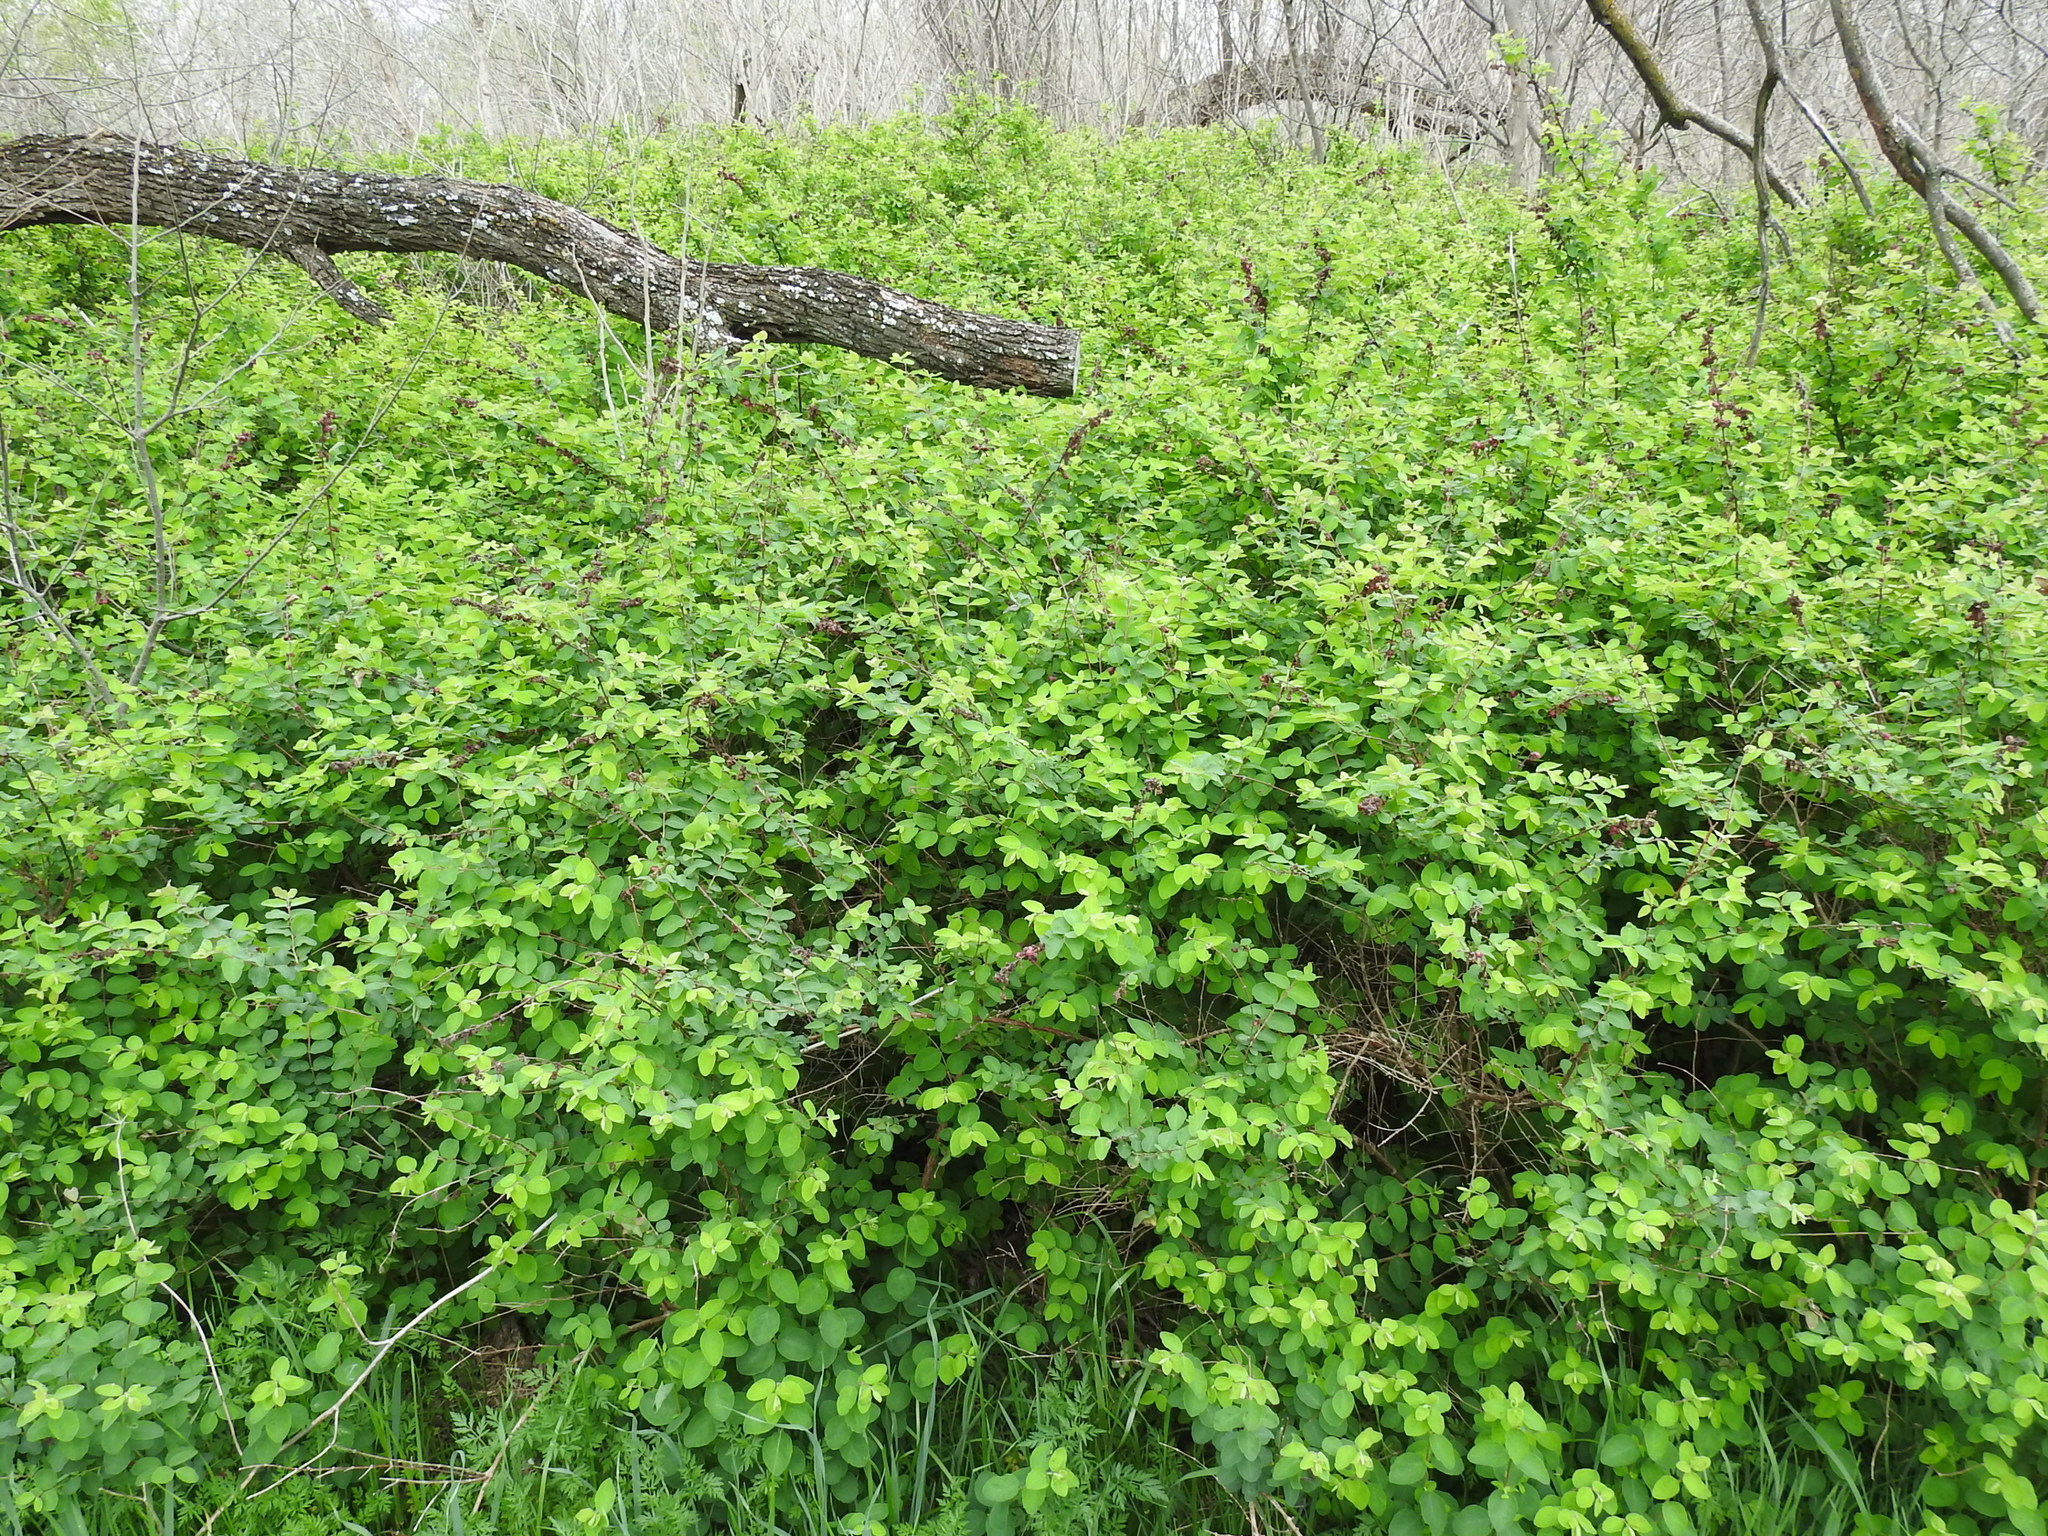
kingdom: Plantae
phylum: Tracheophyta
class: Magnoliopsida
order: Dipsacales
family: Caprifoliaceae
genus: Symphoricarpos
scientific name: Symphoricarpos orbiculatus
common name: Coralberry
